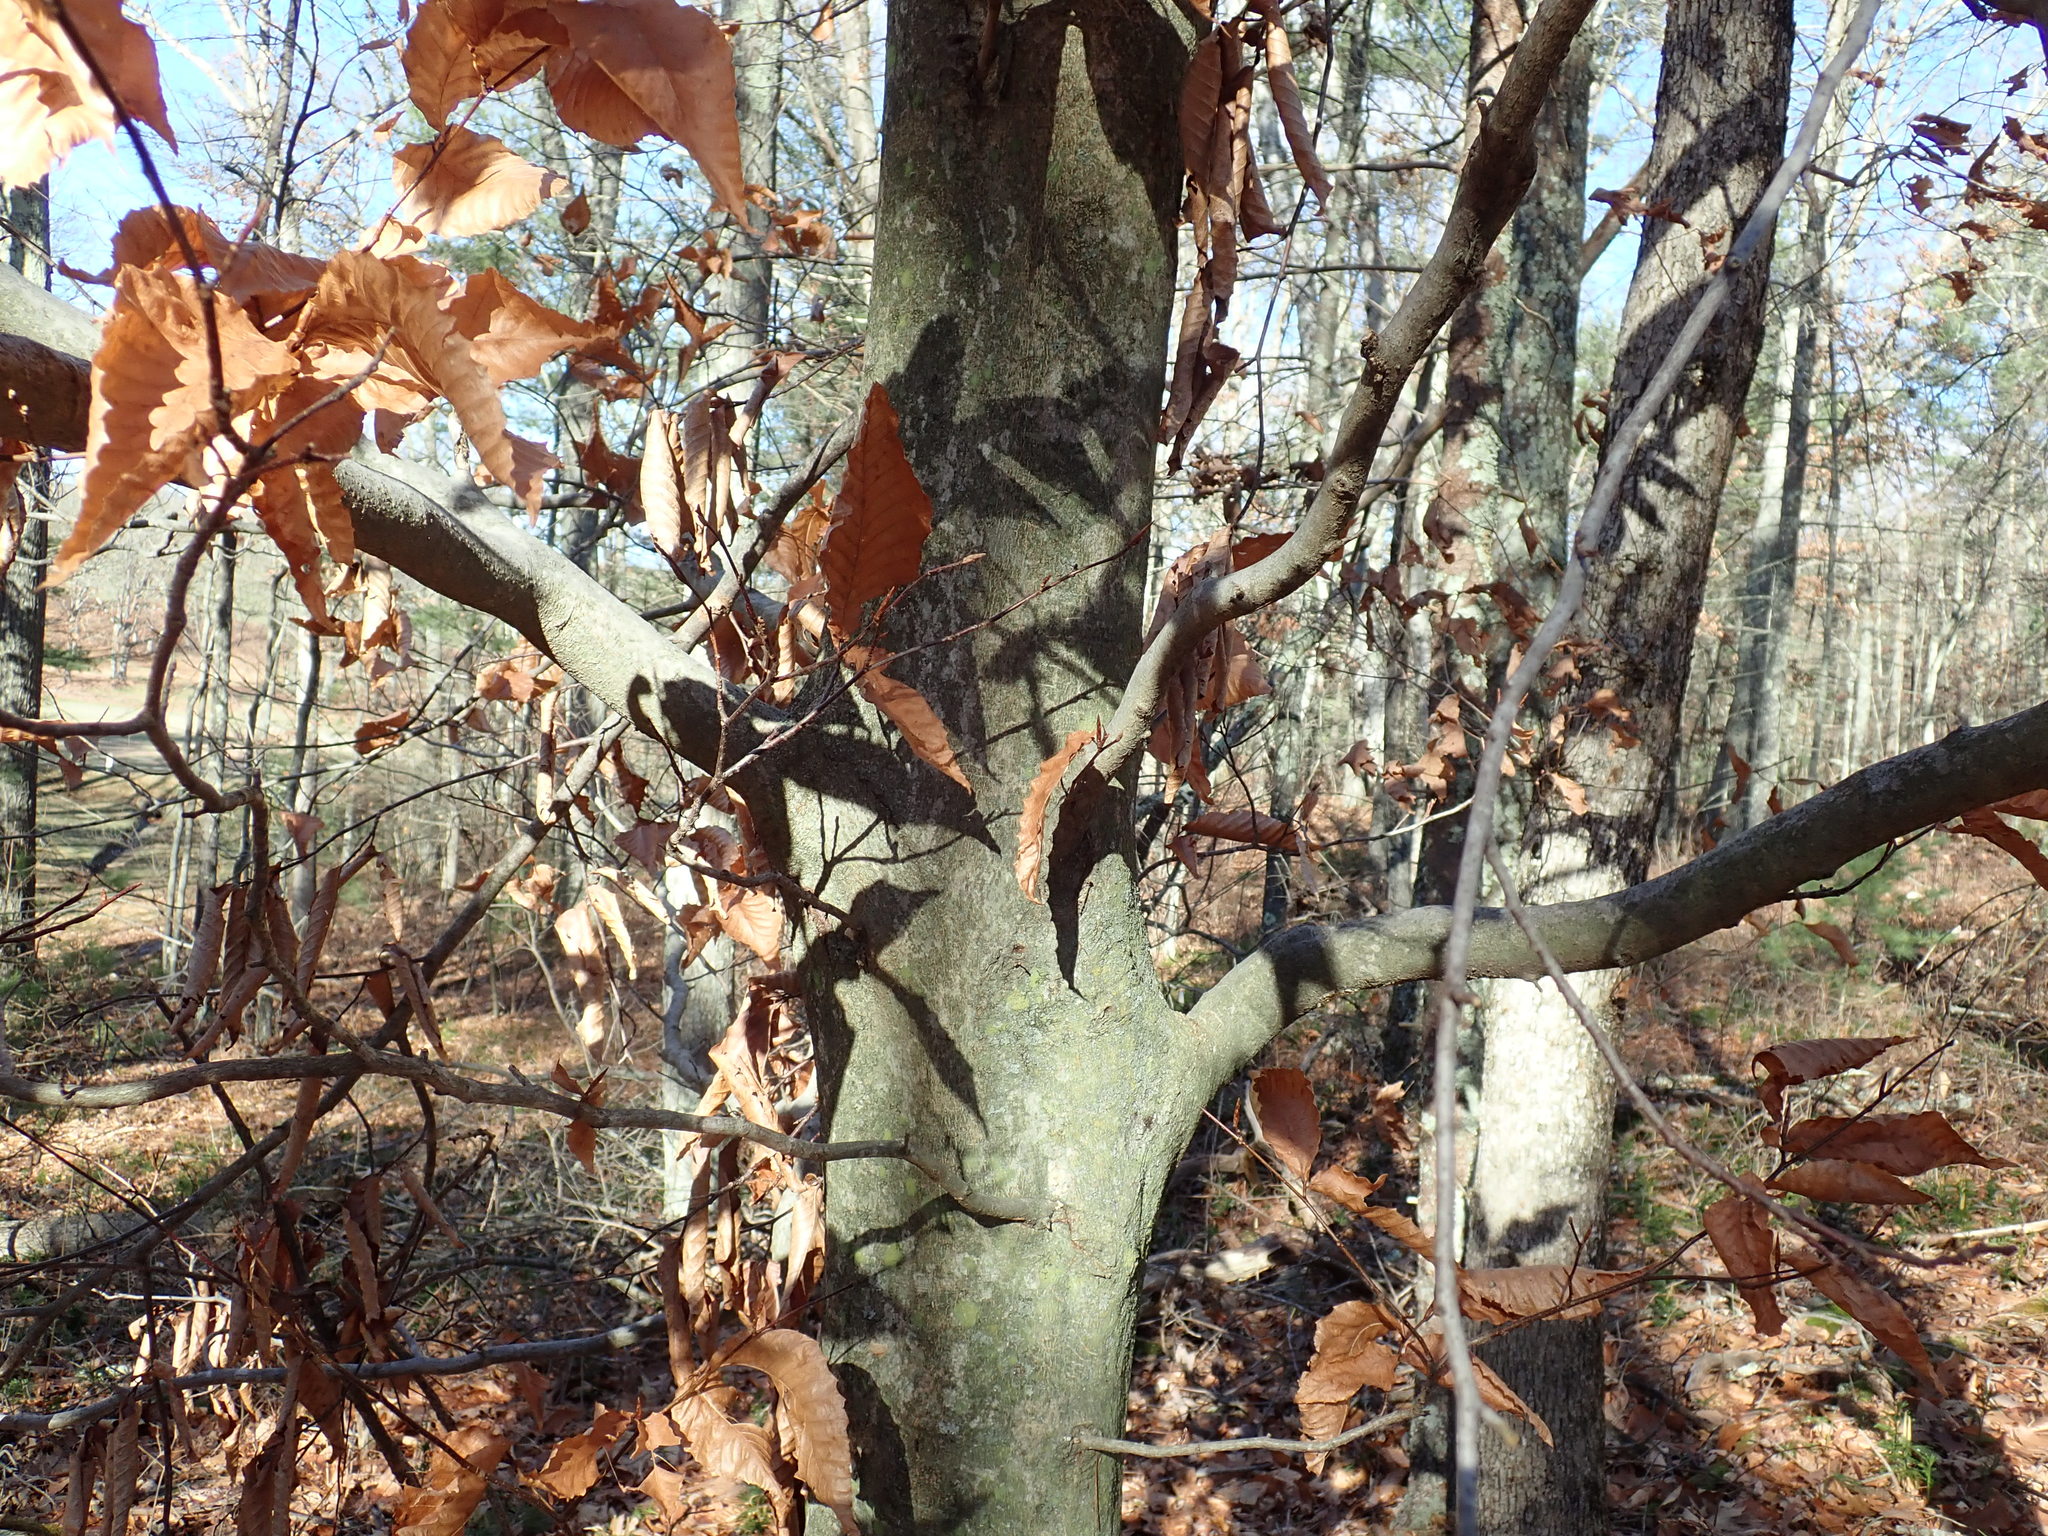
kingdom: Plantae
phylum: Tracheophyta
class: Magnoliopsida
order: Fagales
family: Fagaceae
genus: Fagus
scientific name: Fagus grandifolia
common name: American beech
